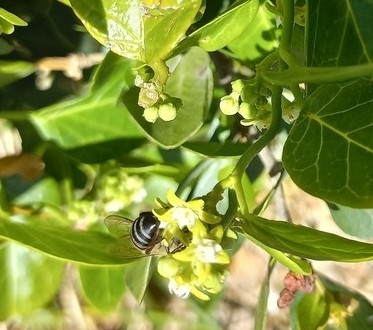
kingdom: Animalia
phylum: Arthropoda
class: Insecta
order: Hymenoptera
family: Apidae
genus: Apis
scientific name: Apis mellifera
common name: Honey bee
